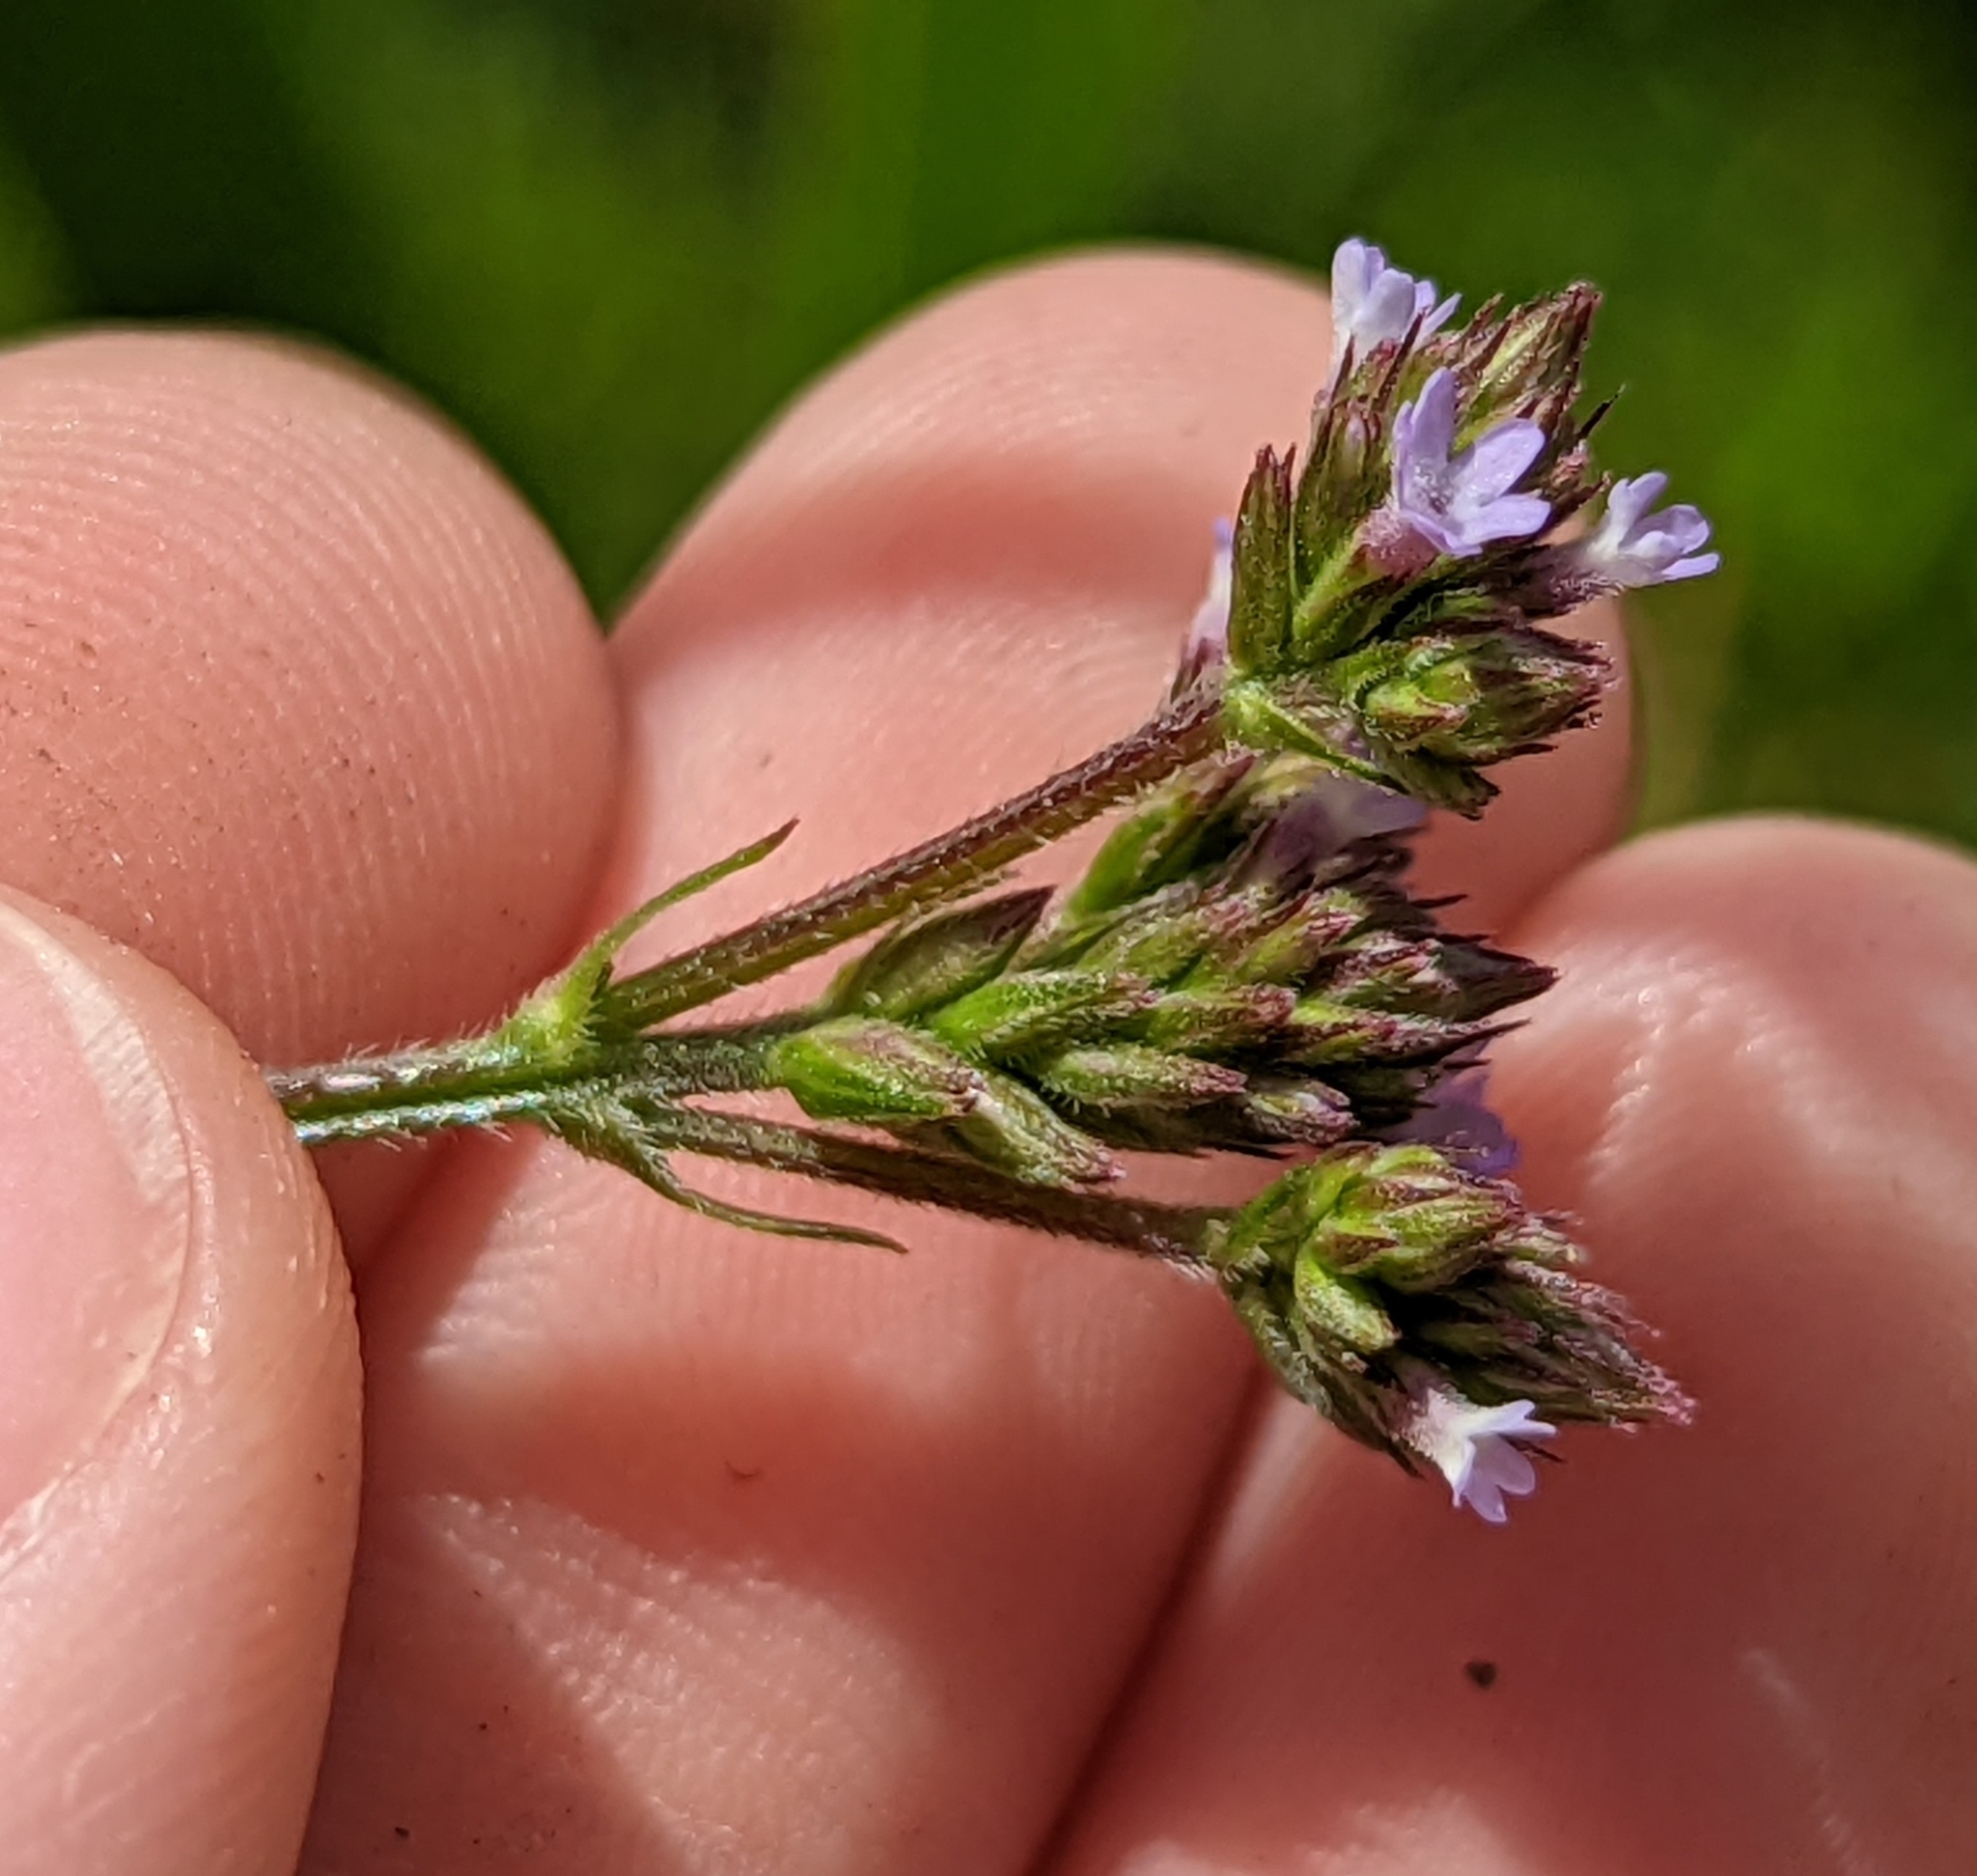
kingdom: Plantae
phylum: Tracheophyta
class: Magnoliopsida
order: Lamiales
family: Verbenaceae
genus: Verbena
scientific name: Verbena brasiliensis
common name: Brazilian vervain
